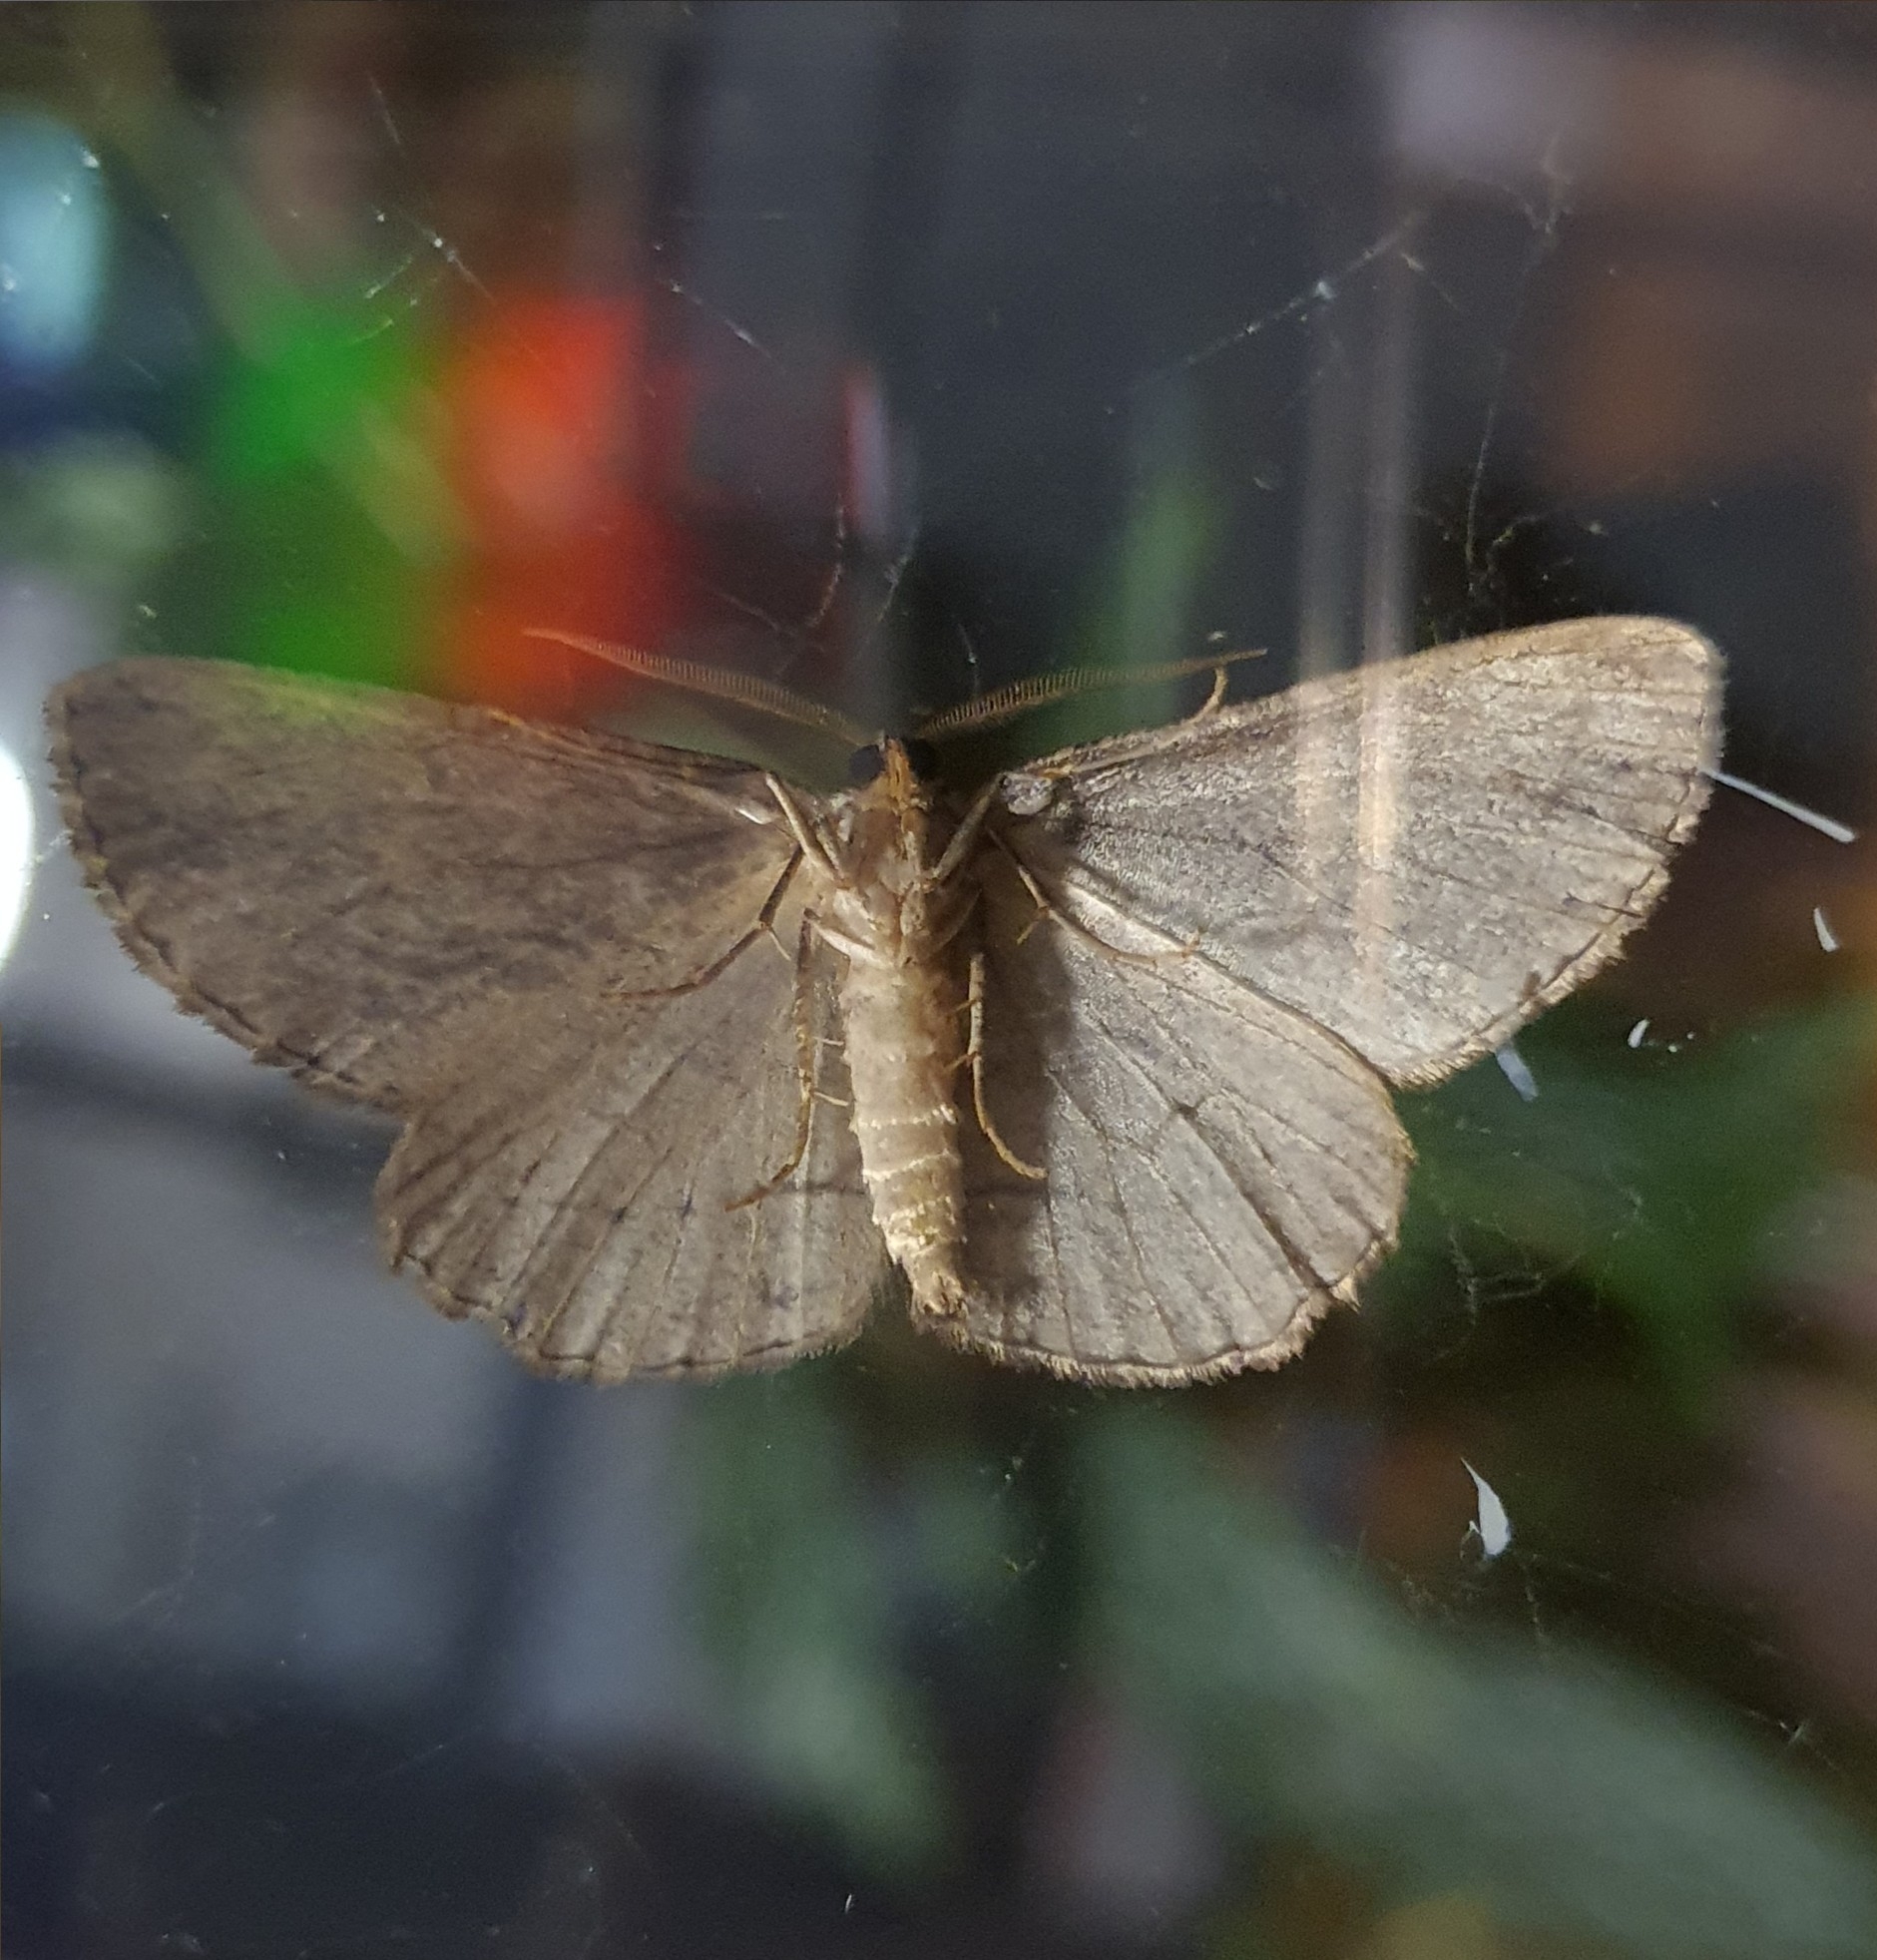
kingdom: Animalia
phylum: Arthropoda
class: Insecta
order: Lepidoptera
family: Geometridae
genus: Ectropis
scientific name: Ectropis excursaria
